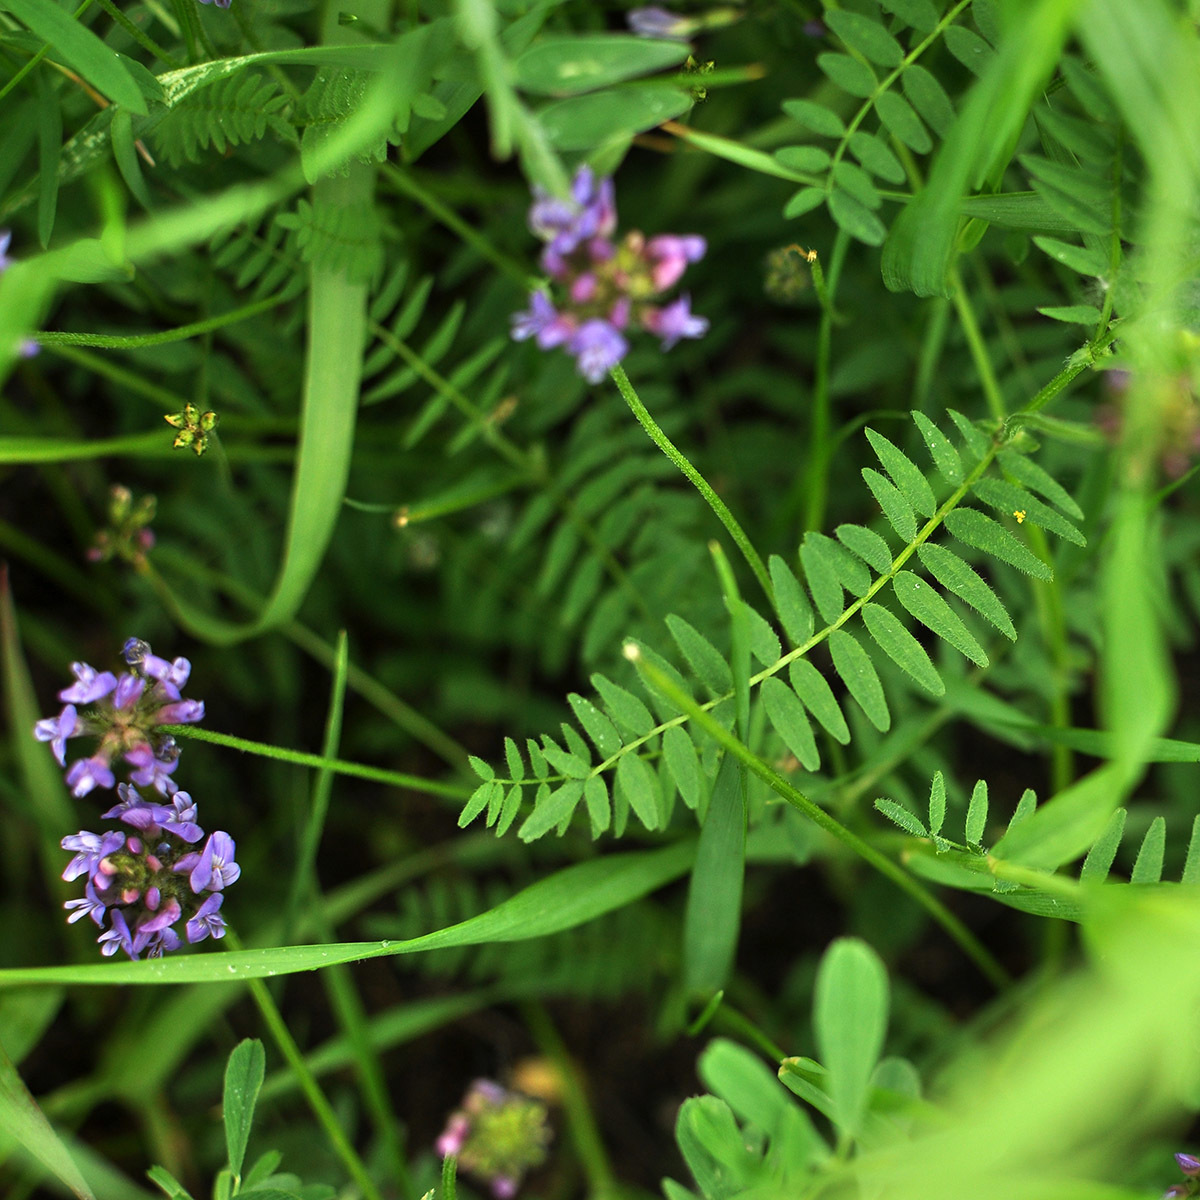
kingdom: Plantae
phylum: Tracheophyta
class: Magnoliopsida
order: Fabales
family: Fabaceae
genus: Astragalus
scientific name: Astragalus danicus
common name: Purple milk-vetch
